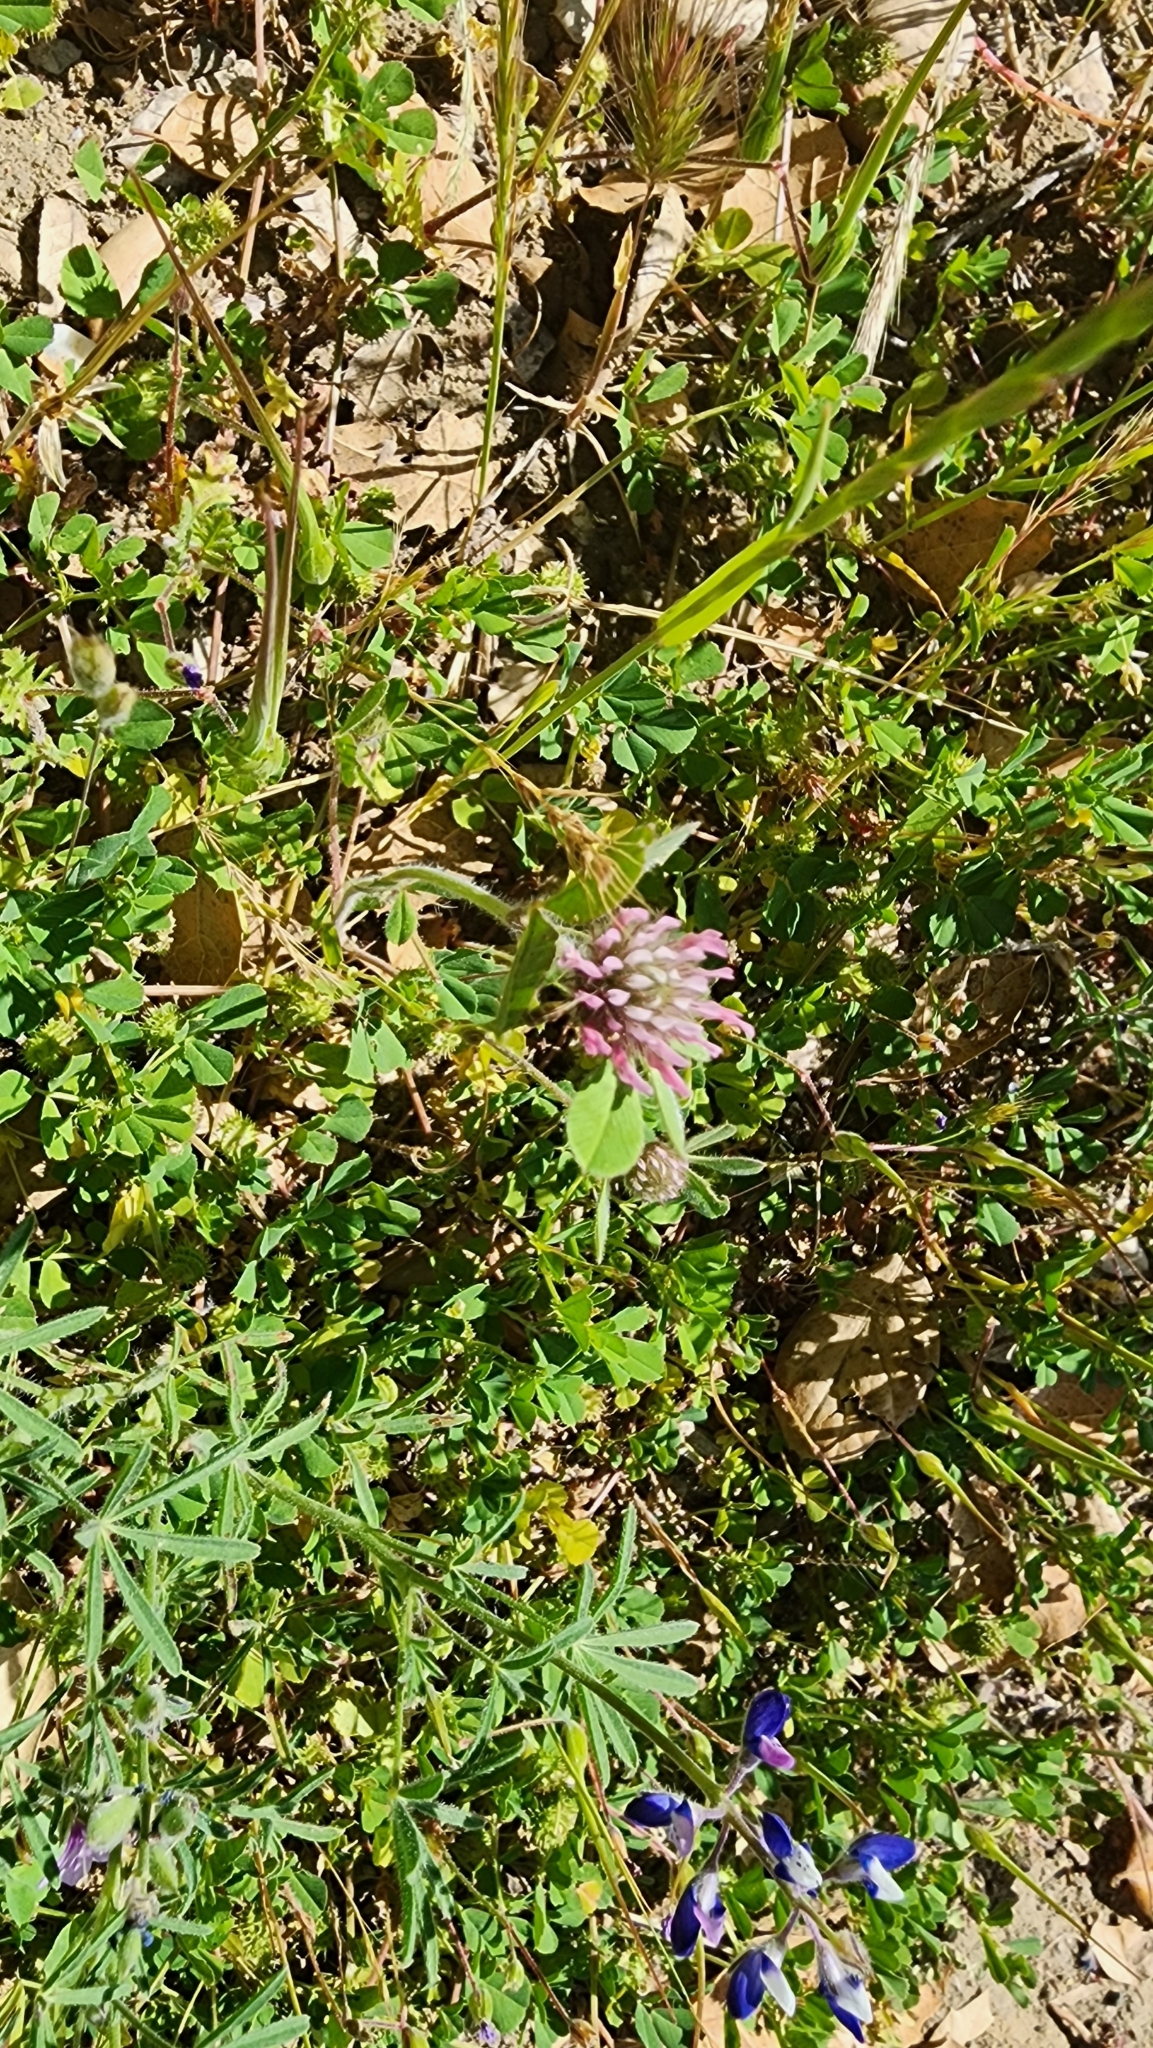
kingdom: Plantae
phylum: Tracheophyta
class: Magnoliopsida
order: Fabales
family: Fabaceae
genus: Trifolium
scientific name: Trifolium hirtum
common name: Rose clover
